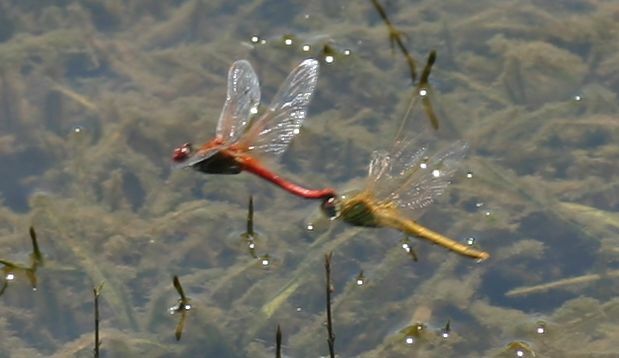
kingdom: Animalia
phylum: Arthropoda
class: Insecta
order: Odonata
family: Libellulidae
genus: Crocothemis
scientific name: Crocothemis servilia
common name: Scarlet skimmer
